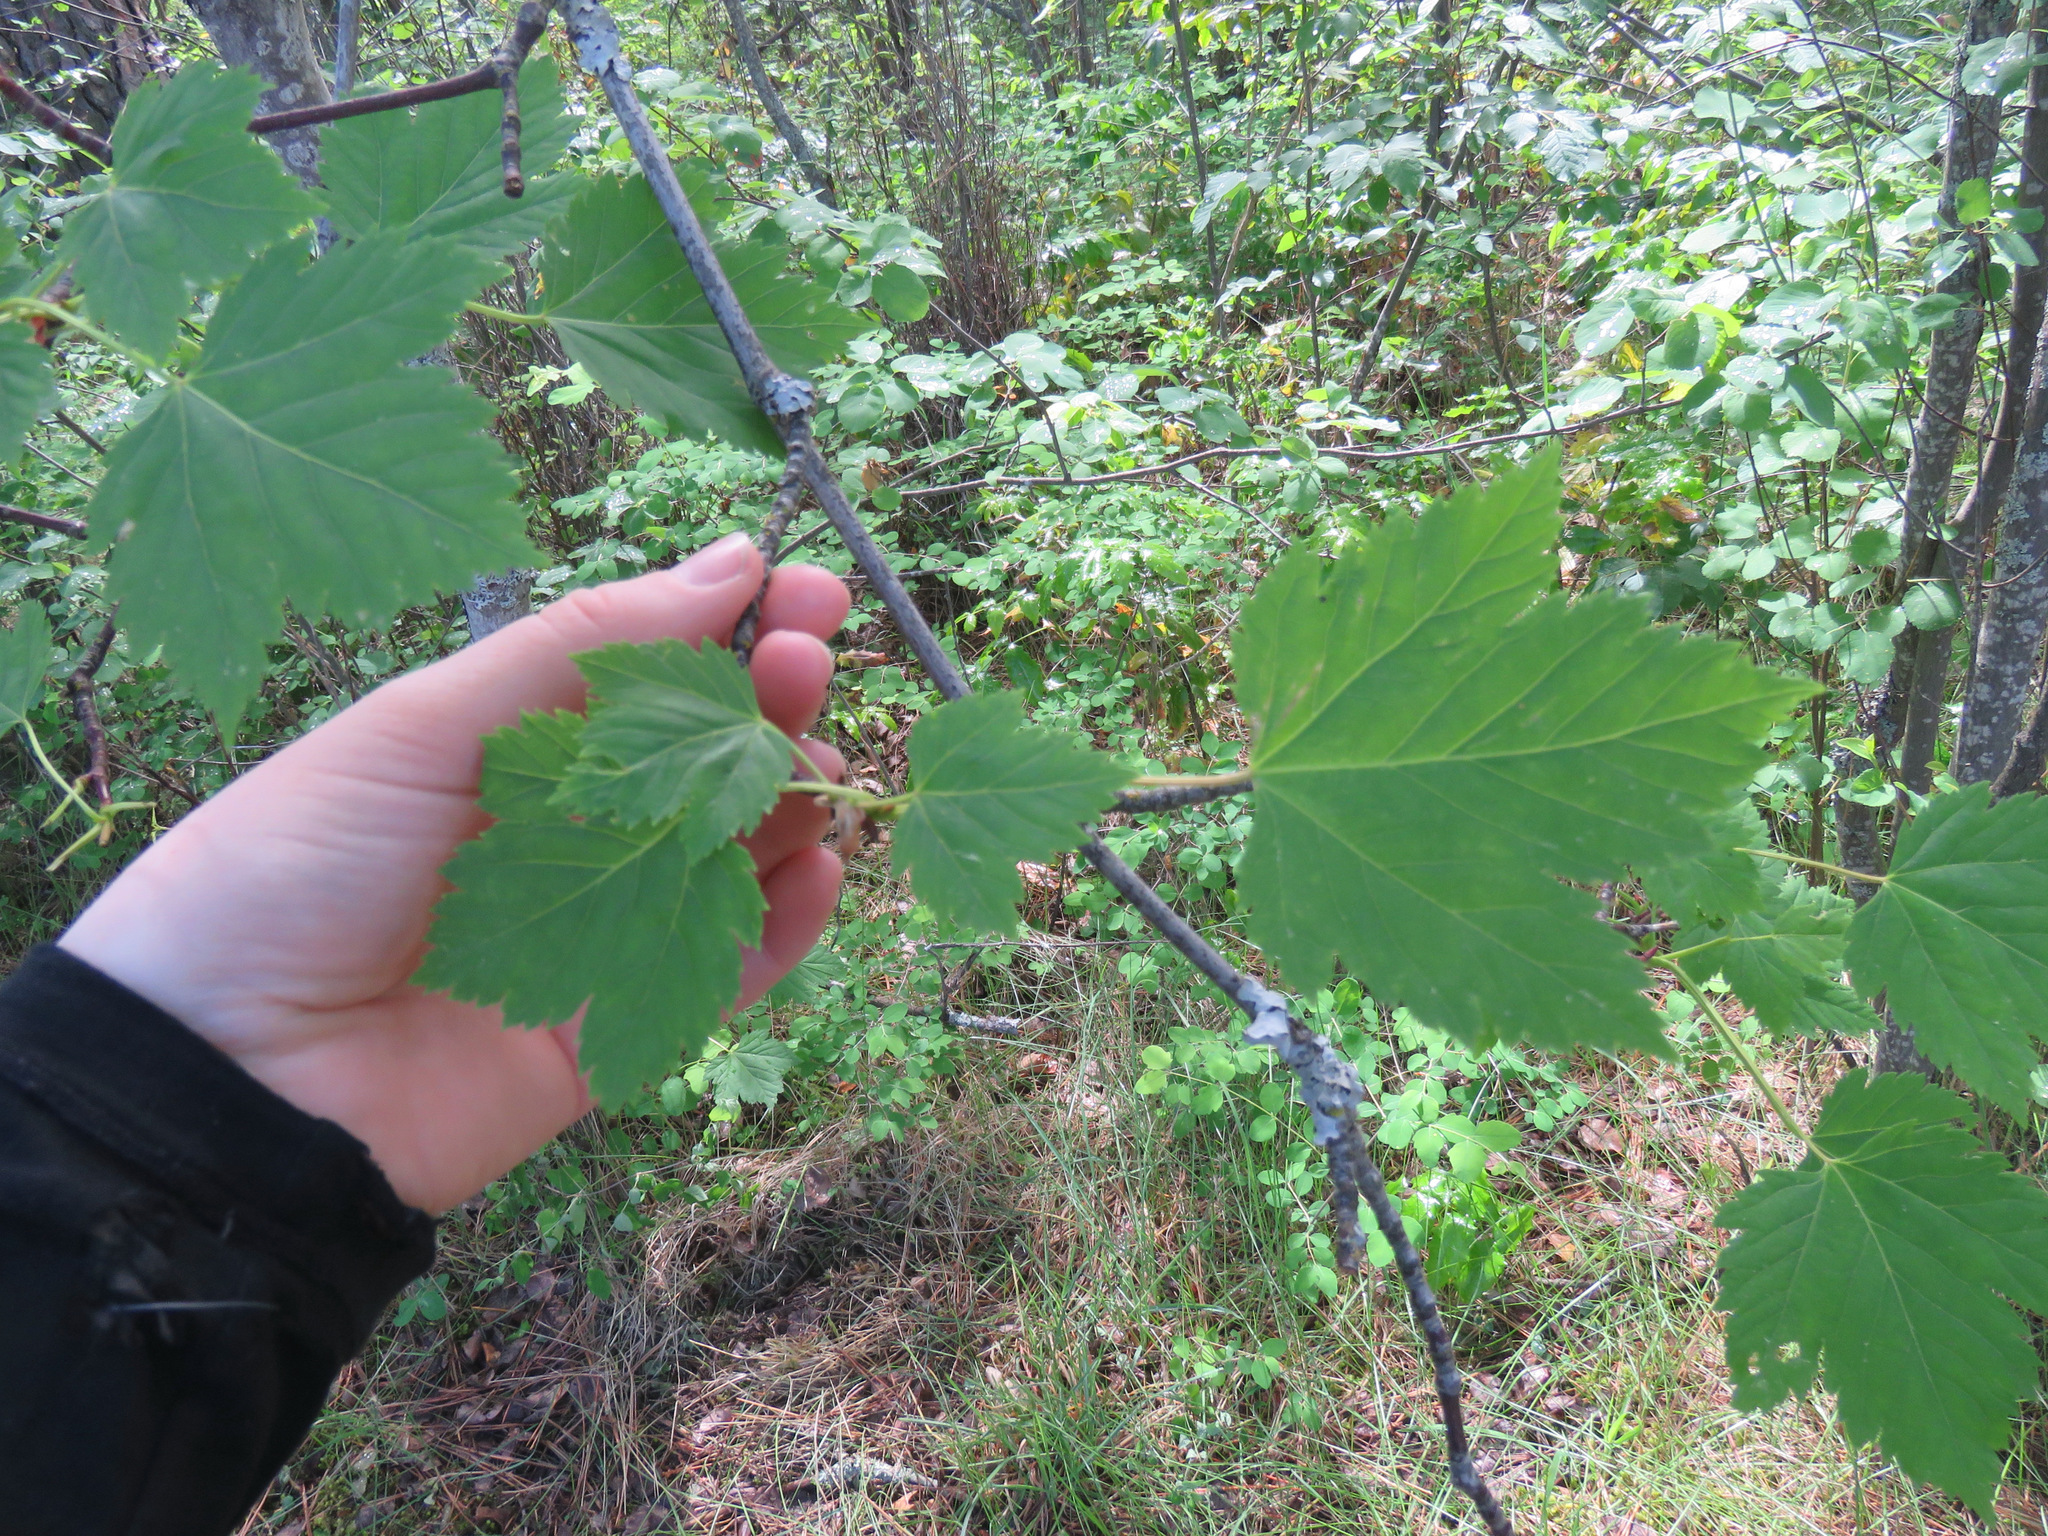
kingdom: Plantae
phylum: Tracheophyta
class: Magnoliopsida
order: Sapindales
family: Sapindaceae
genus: Acer
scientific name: Acer glabrum
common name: Rocky mountain maple
